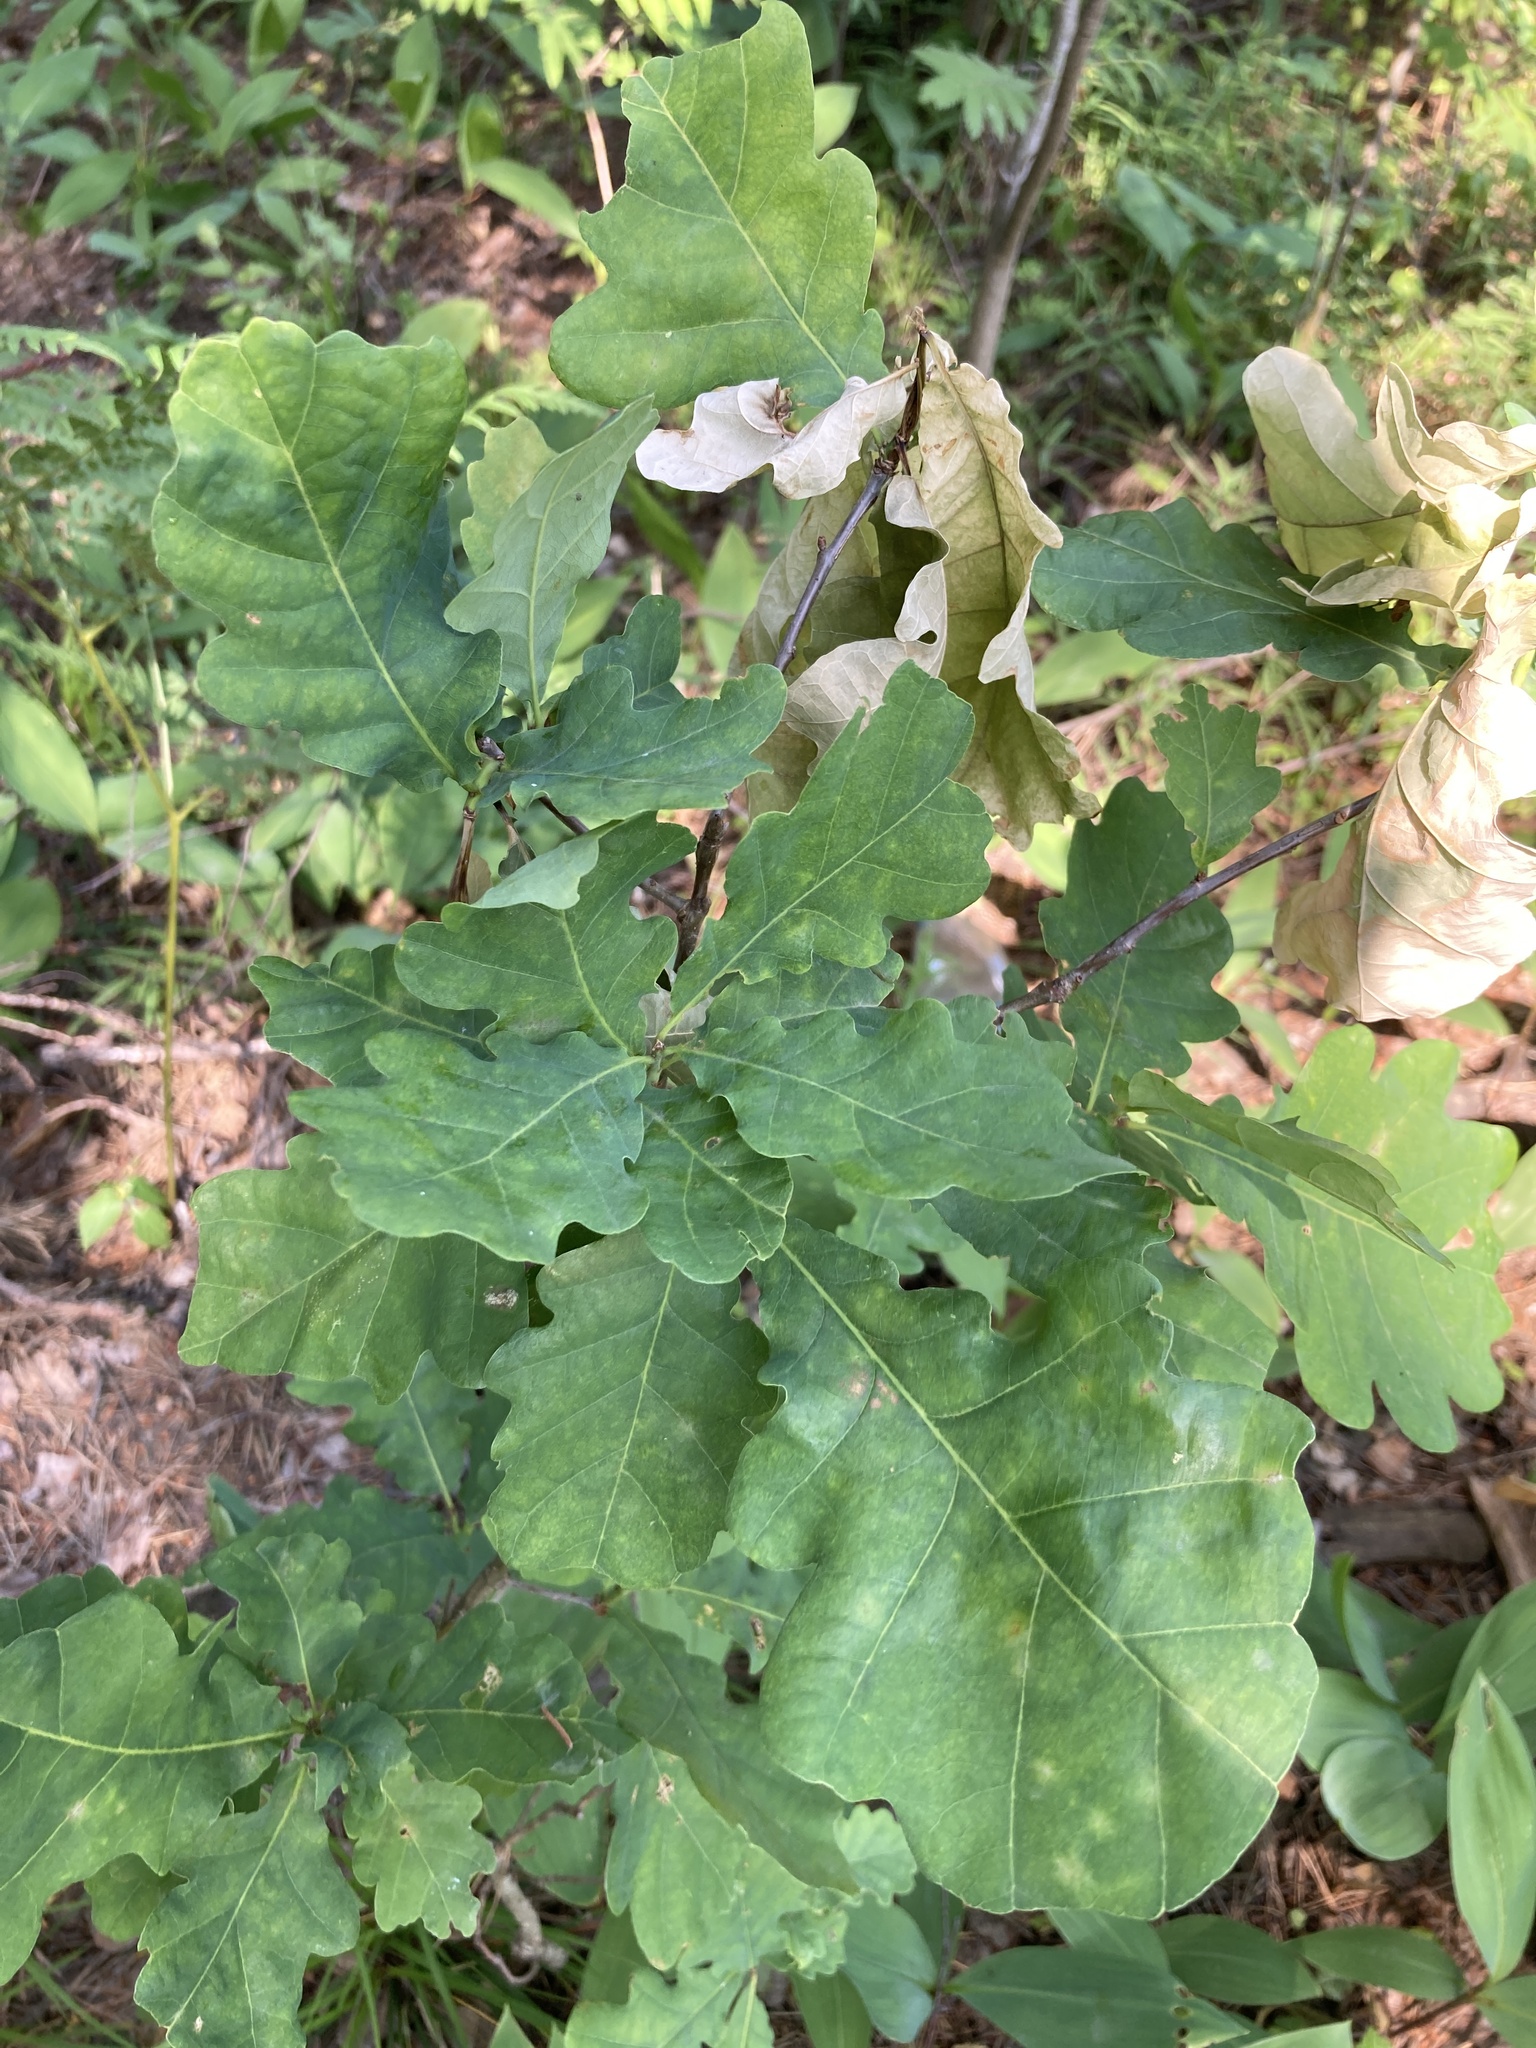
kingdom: Plantae
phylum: Tracheophyta
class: Magnoliopsida
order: Fagales
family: Fagaceae
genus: Quercus
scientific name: Quercus robur
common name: Pedunculate oak
